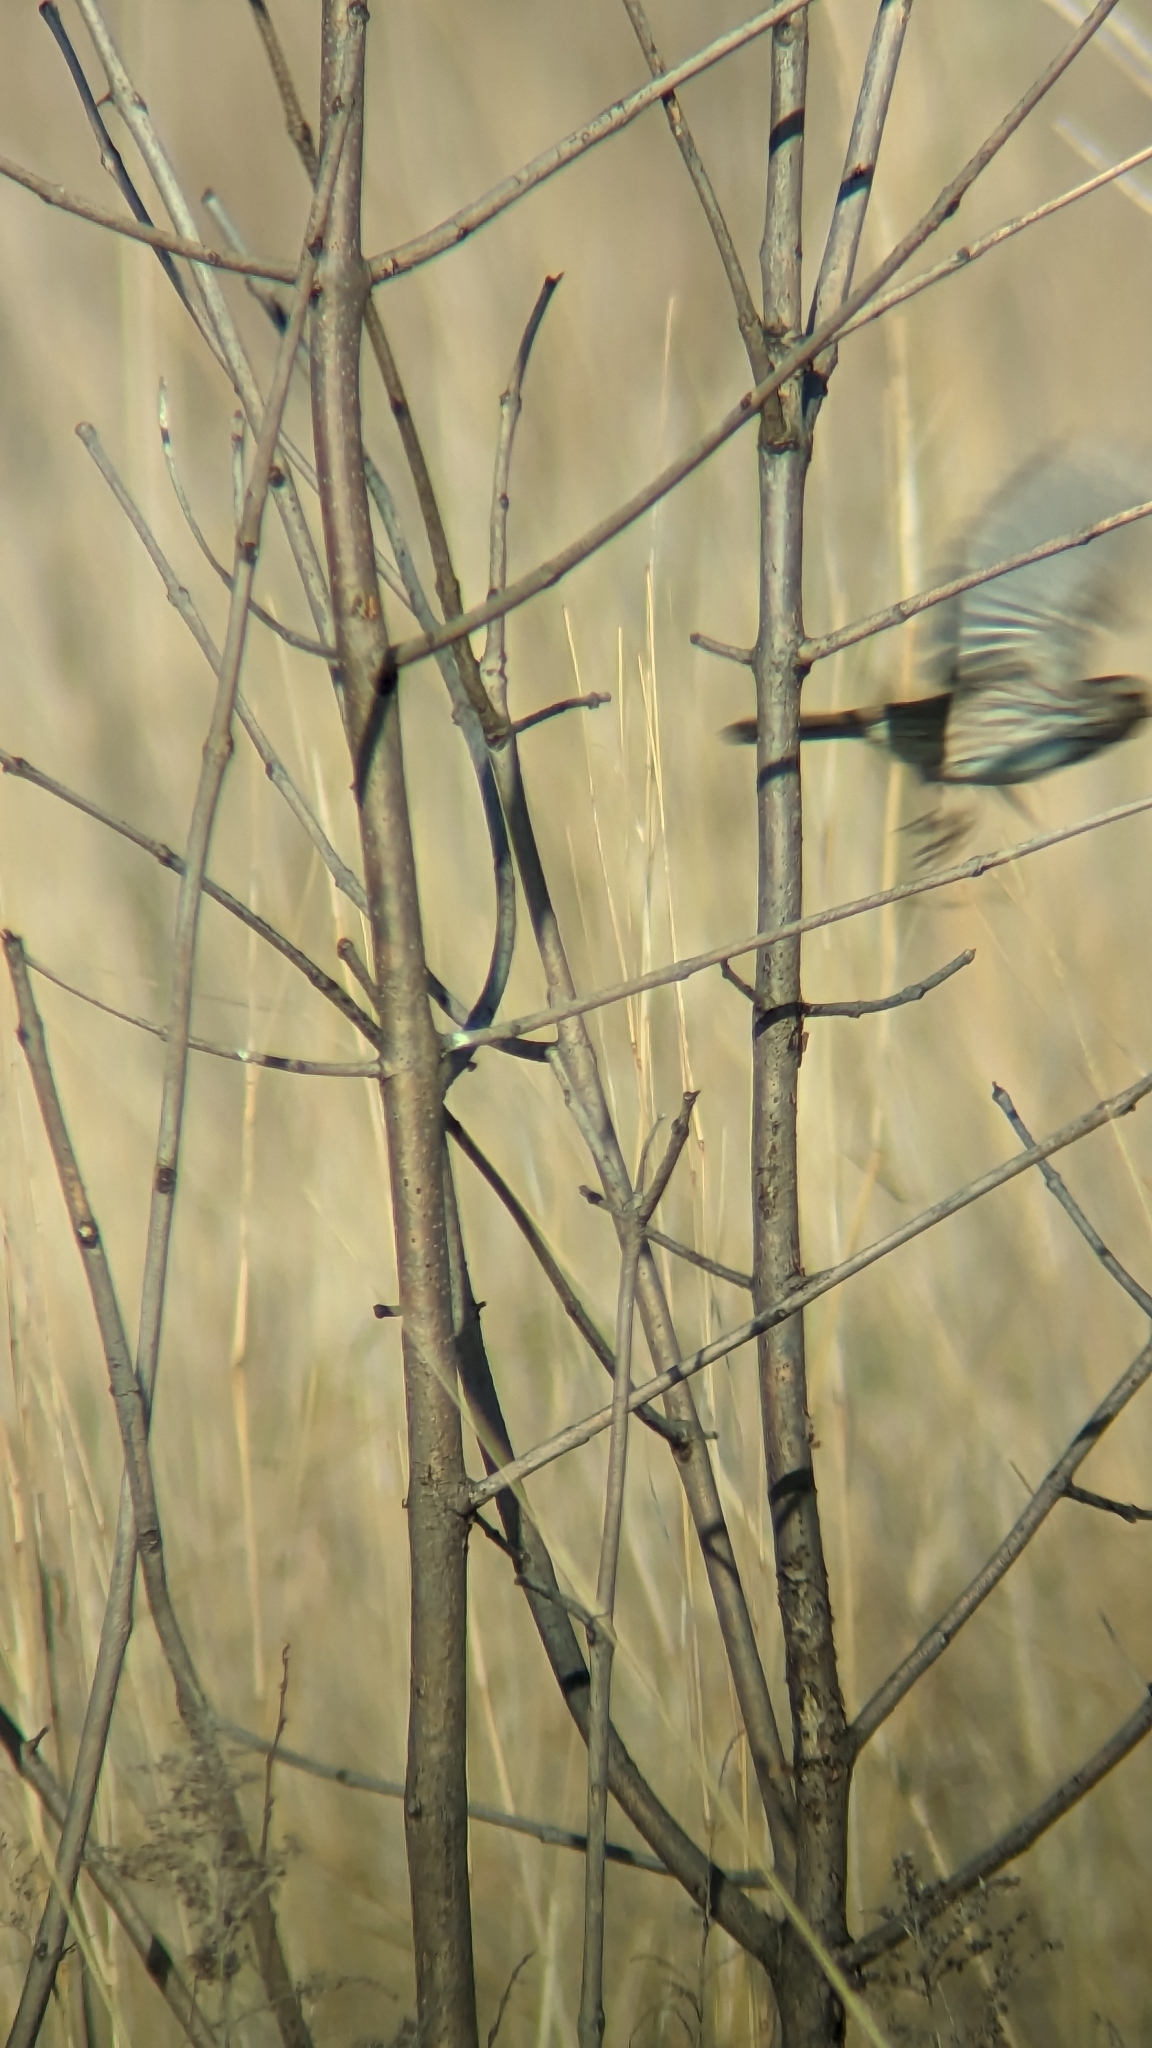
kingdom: Animalia
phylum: Chordata
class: Aves
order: Passeriformes
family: Passerellidae
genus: Melospiza
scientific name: Melospiza melodia
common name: Song sparrow
